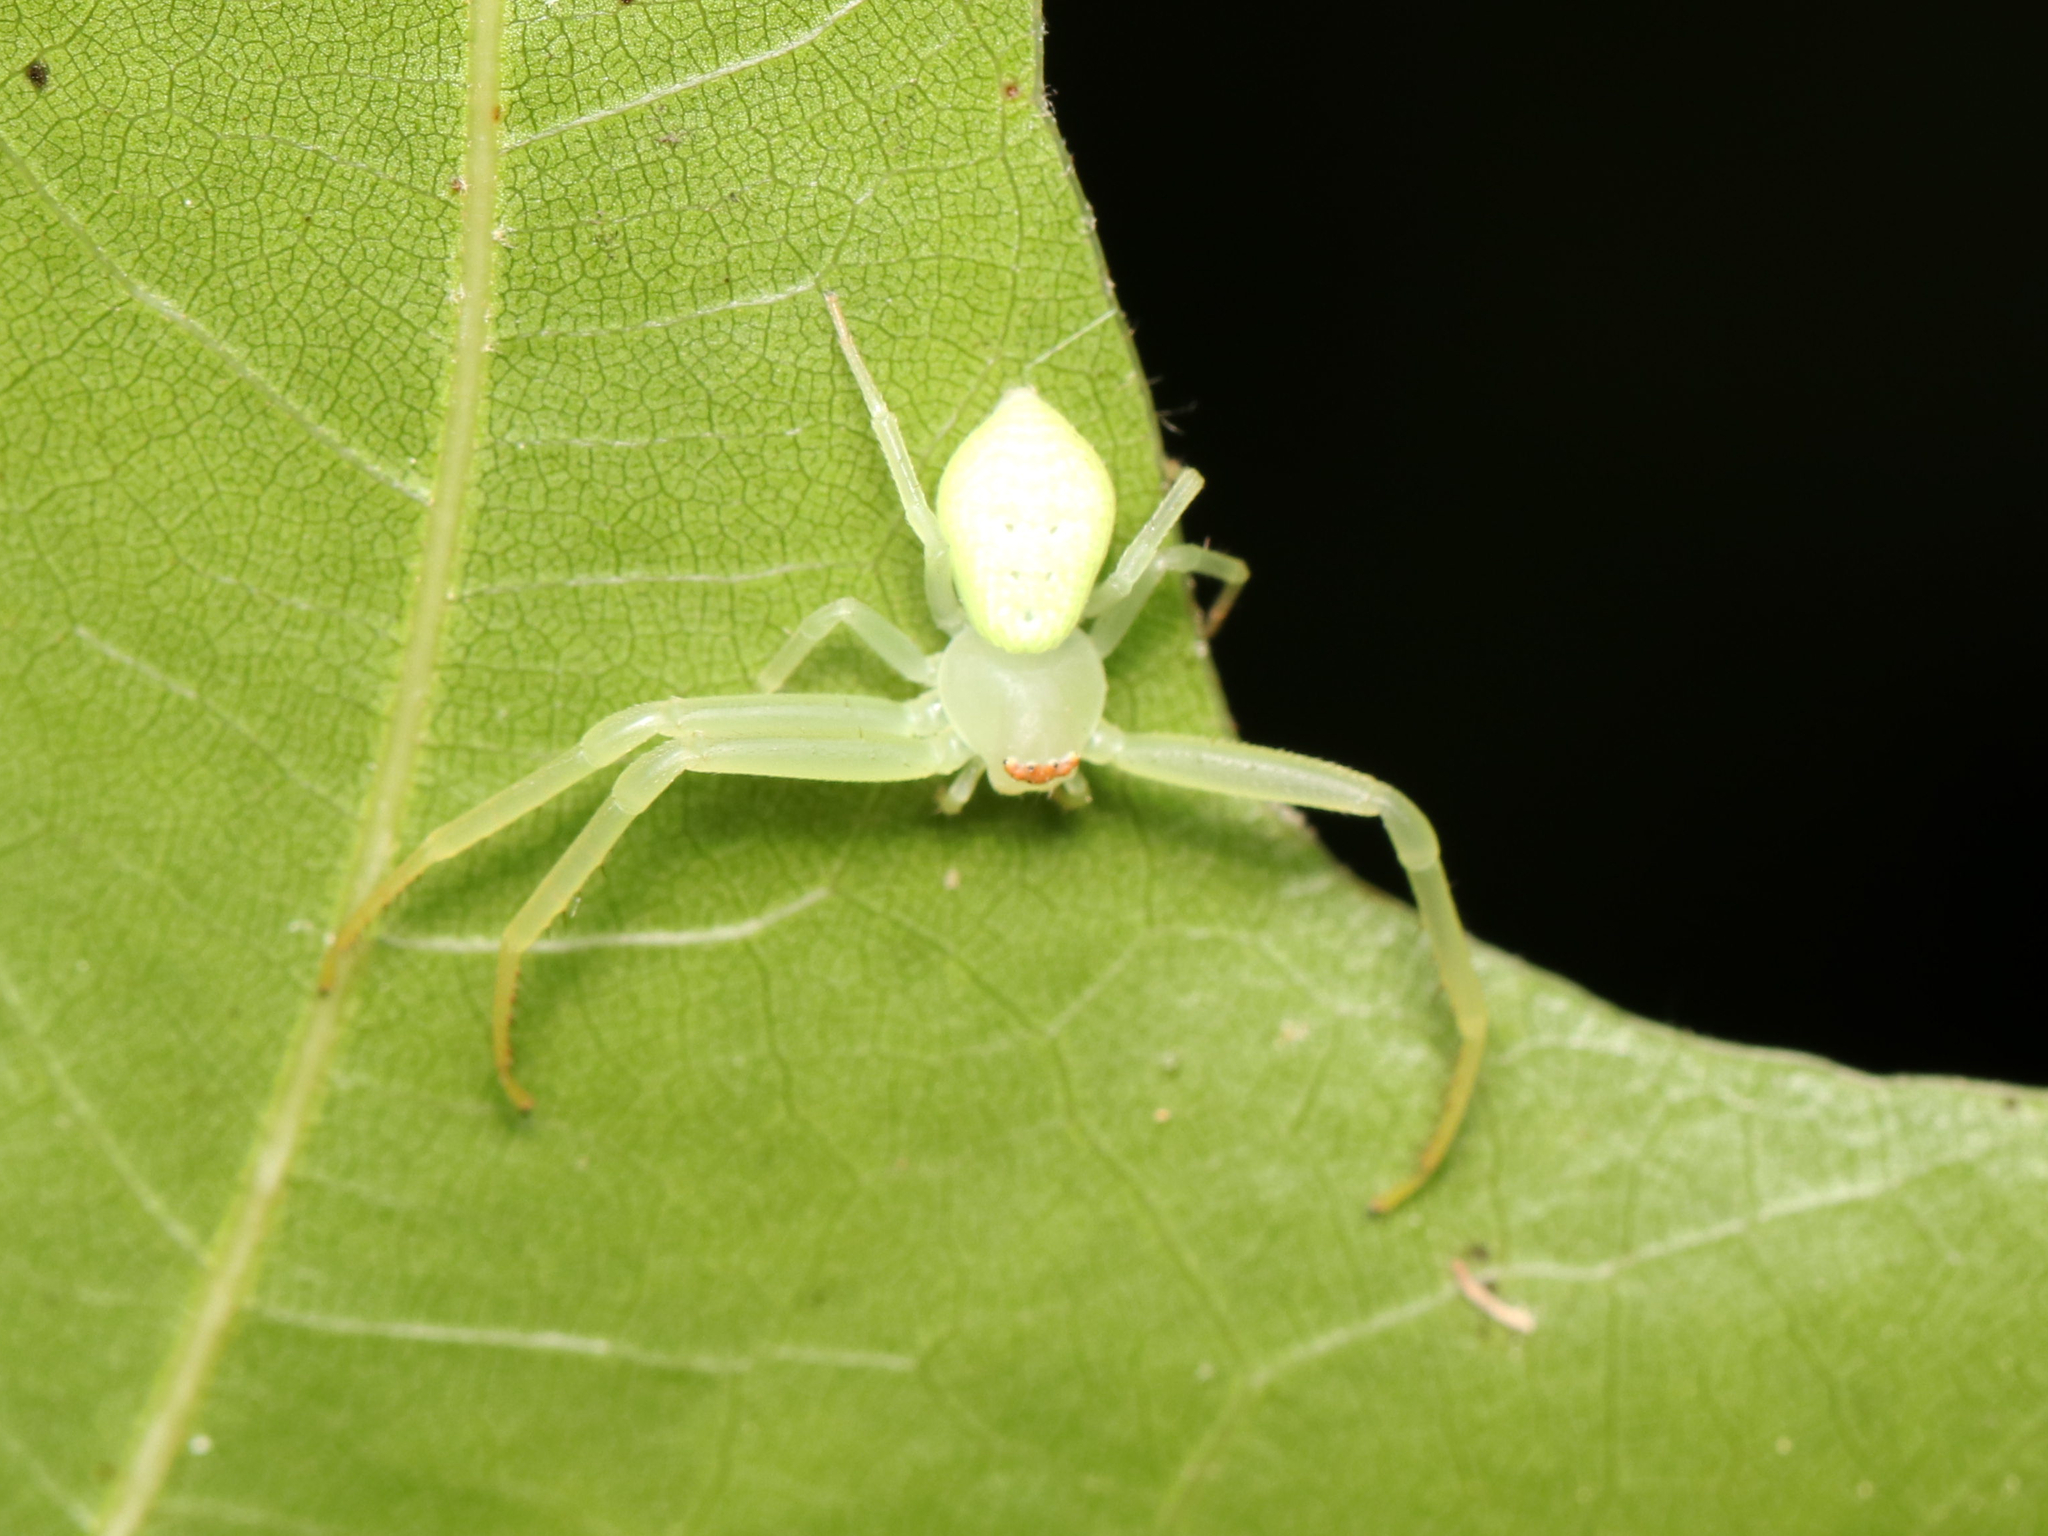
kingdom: Animalia
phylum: Arthropoda
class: Arachnida
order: Araneae
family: Thomisidae
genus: Misumessus
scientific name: Misumessus oblongus
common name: American green crab spider
